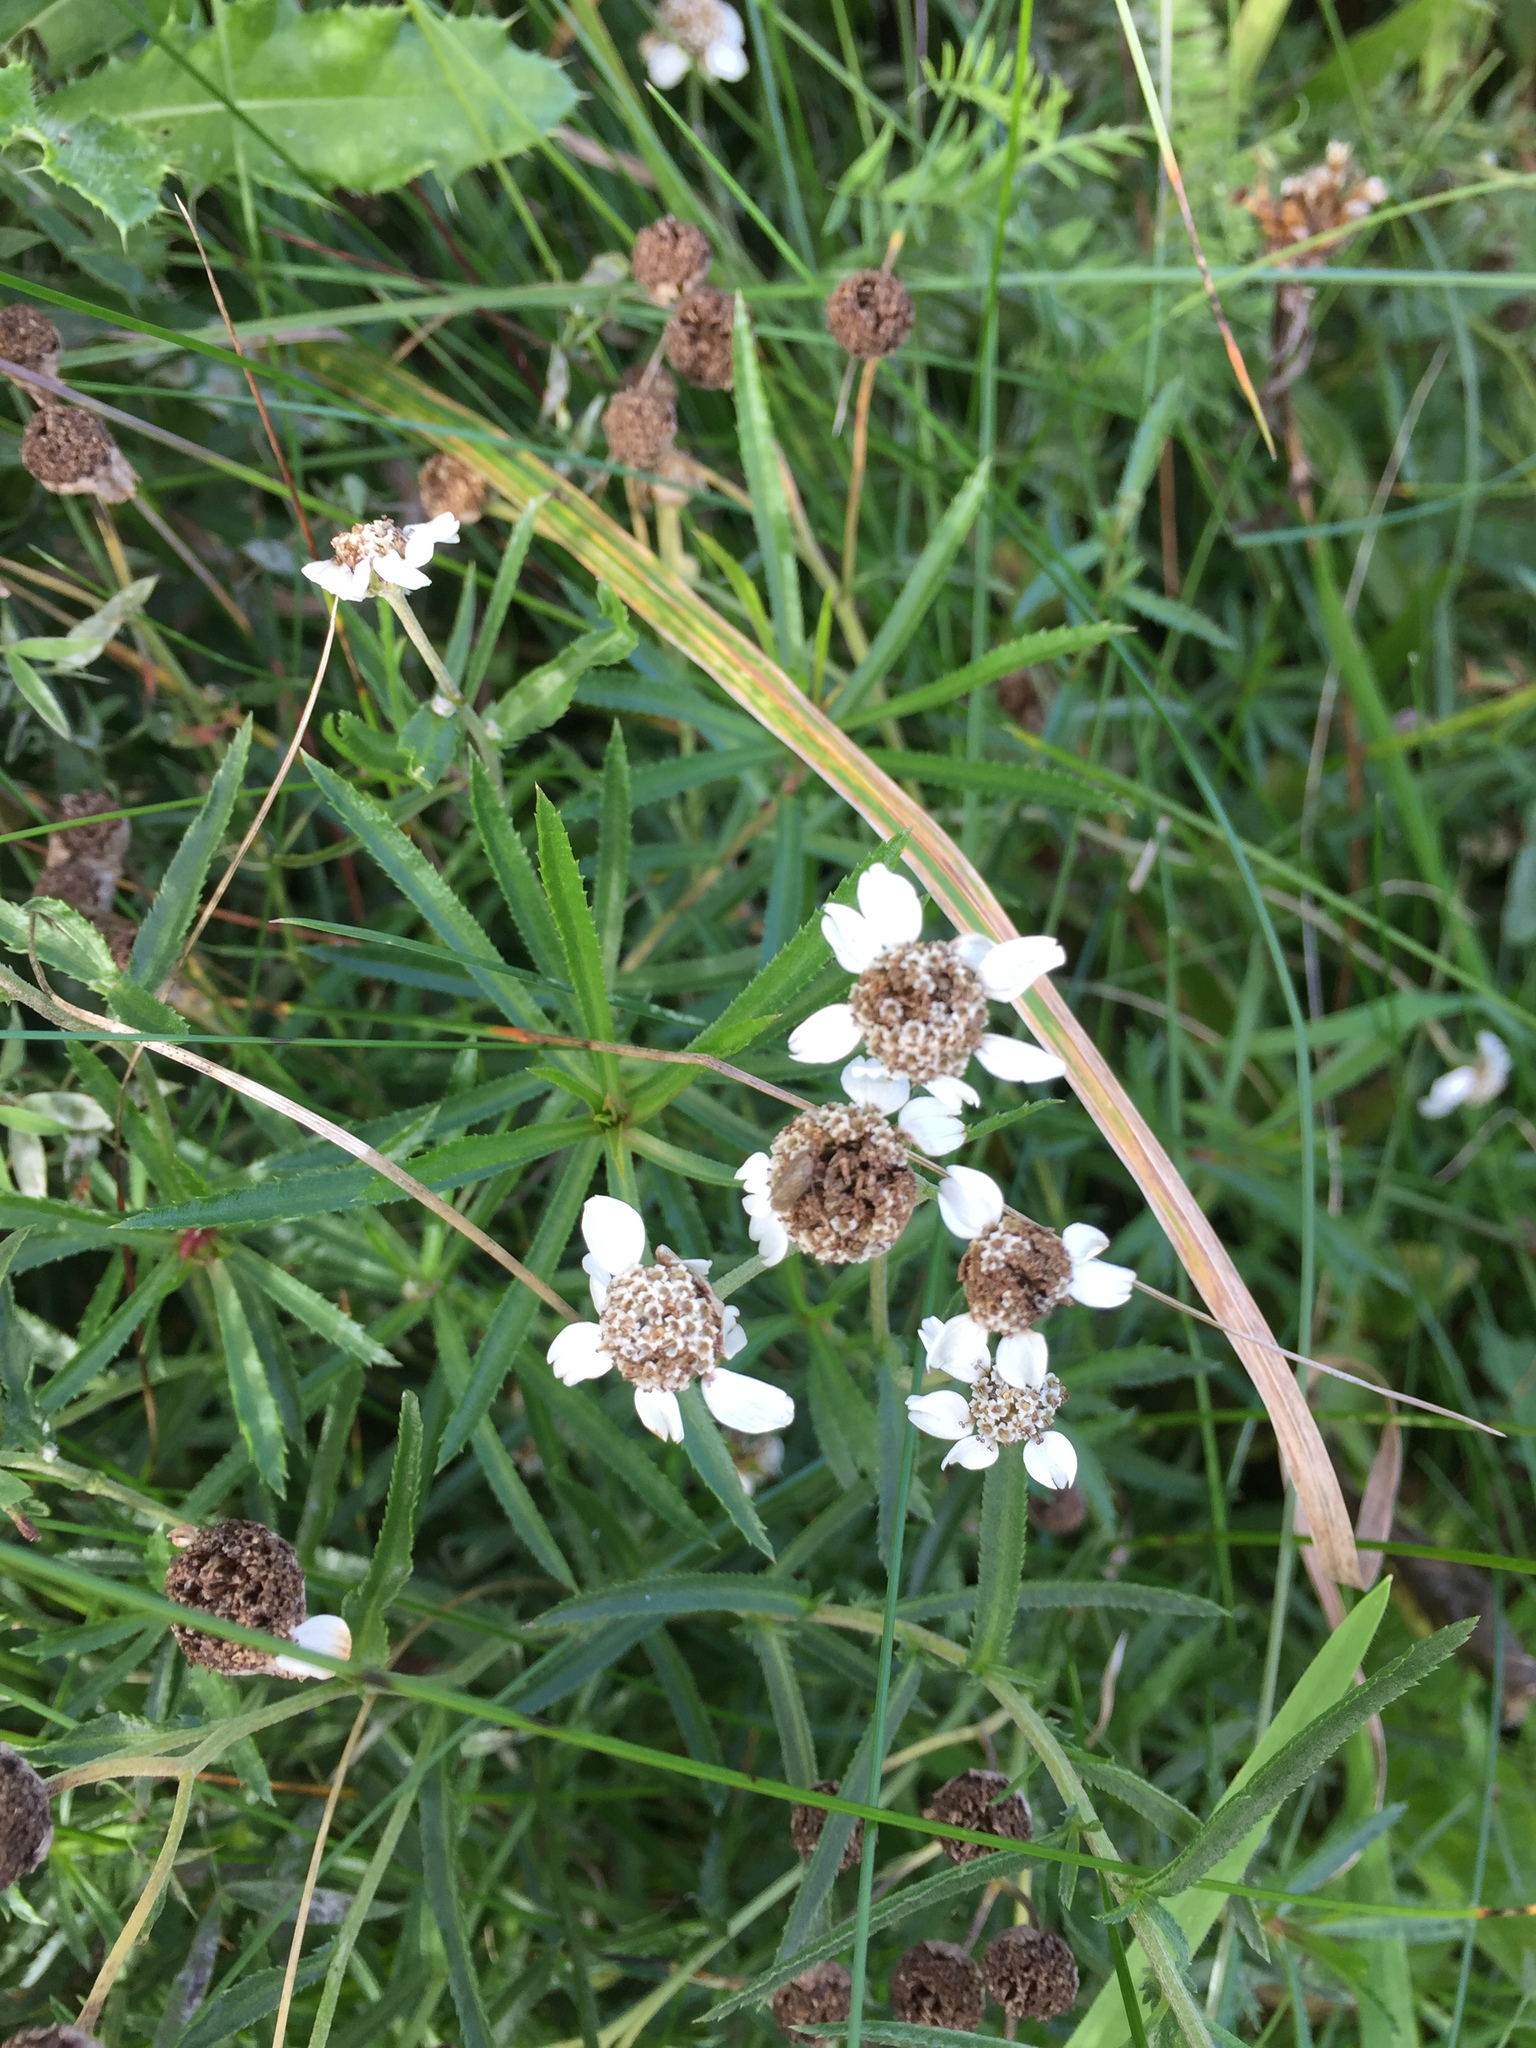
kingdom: Plantae
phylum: Tracheophyta
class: Magnoliopsida
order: Asterales
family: Asteraceae
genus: Achillea
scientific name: Achillea ptarmica
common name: Sneezeweed
